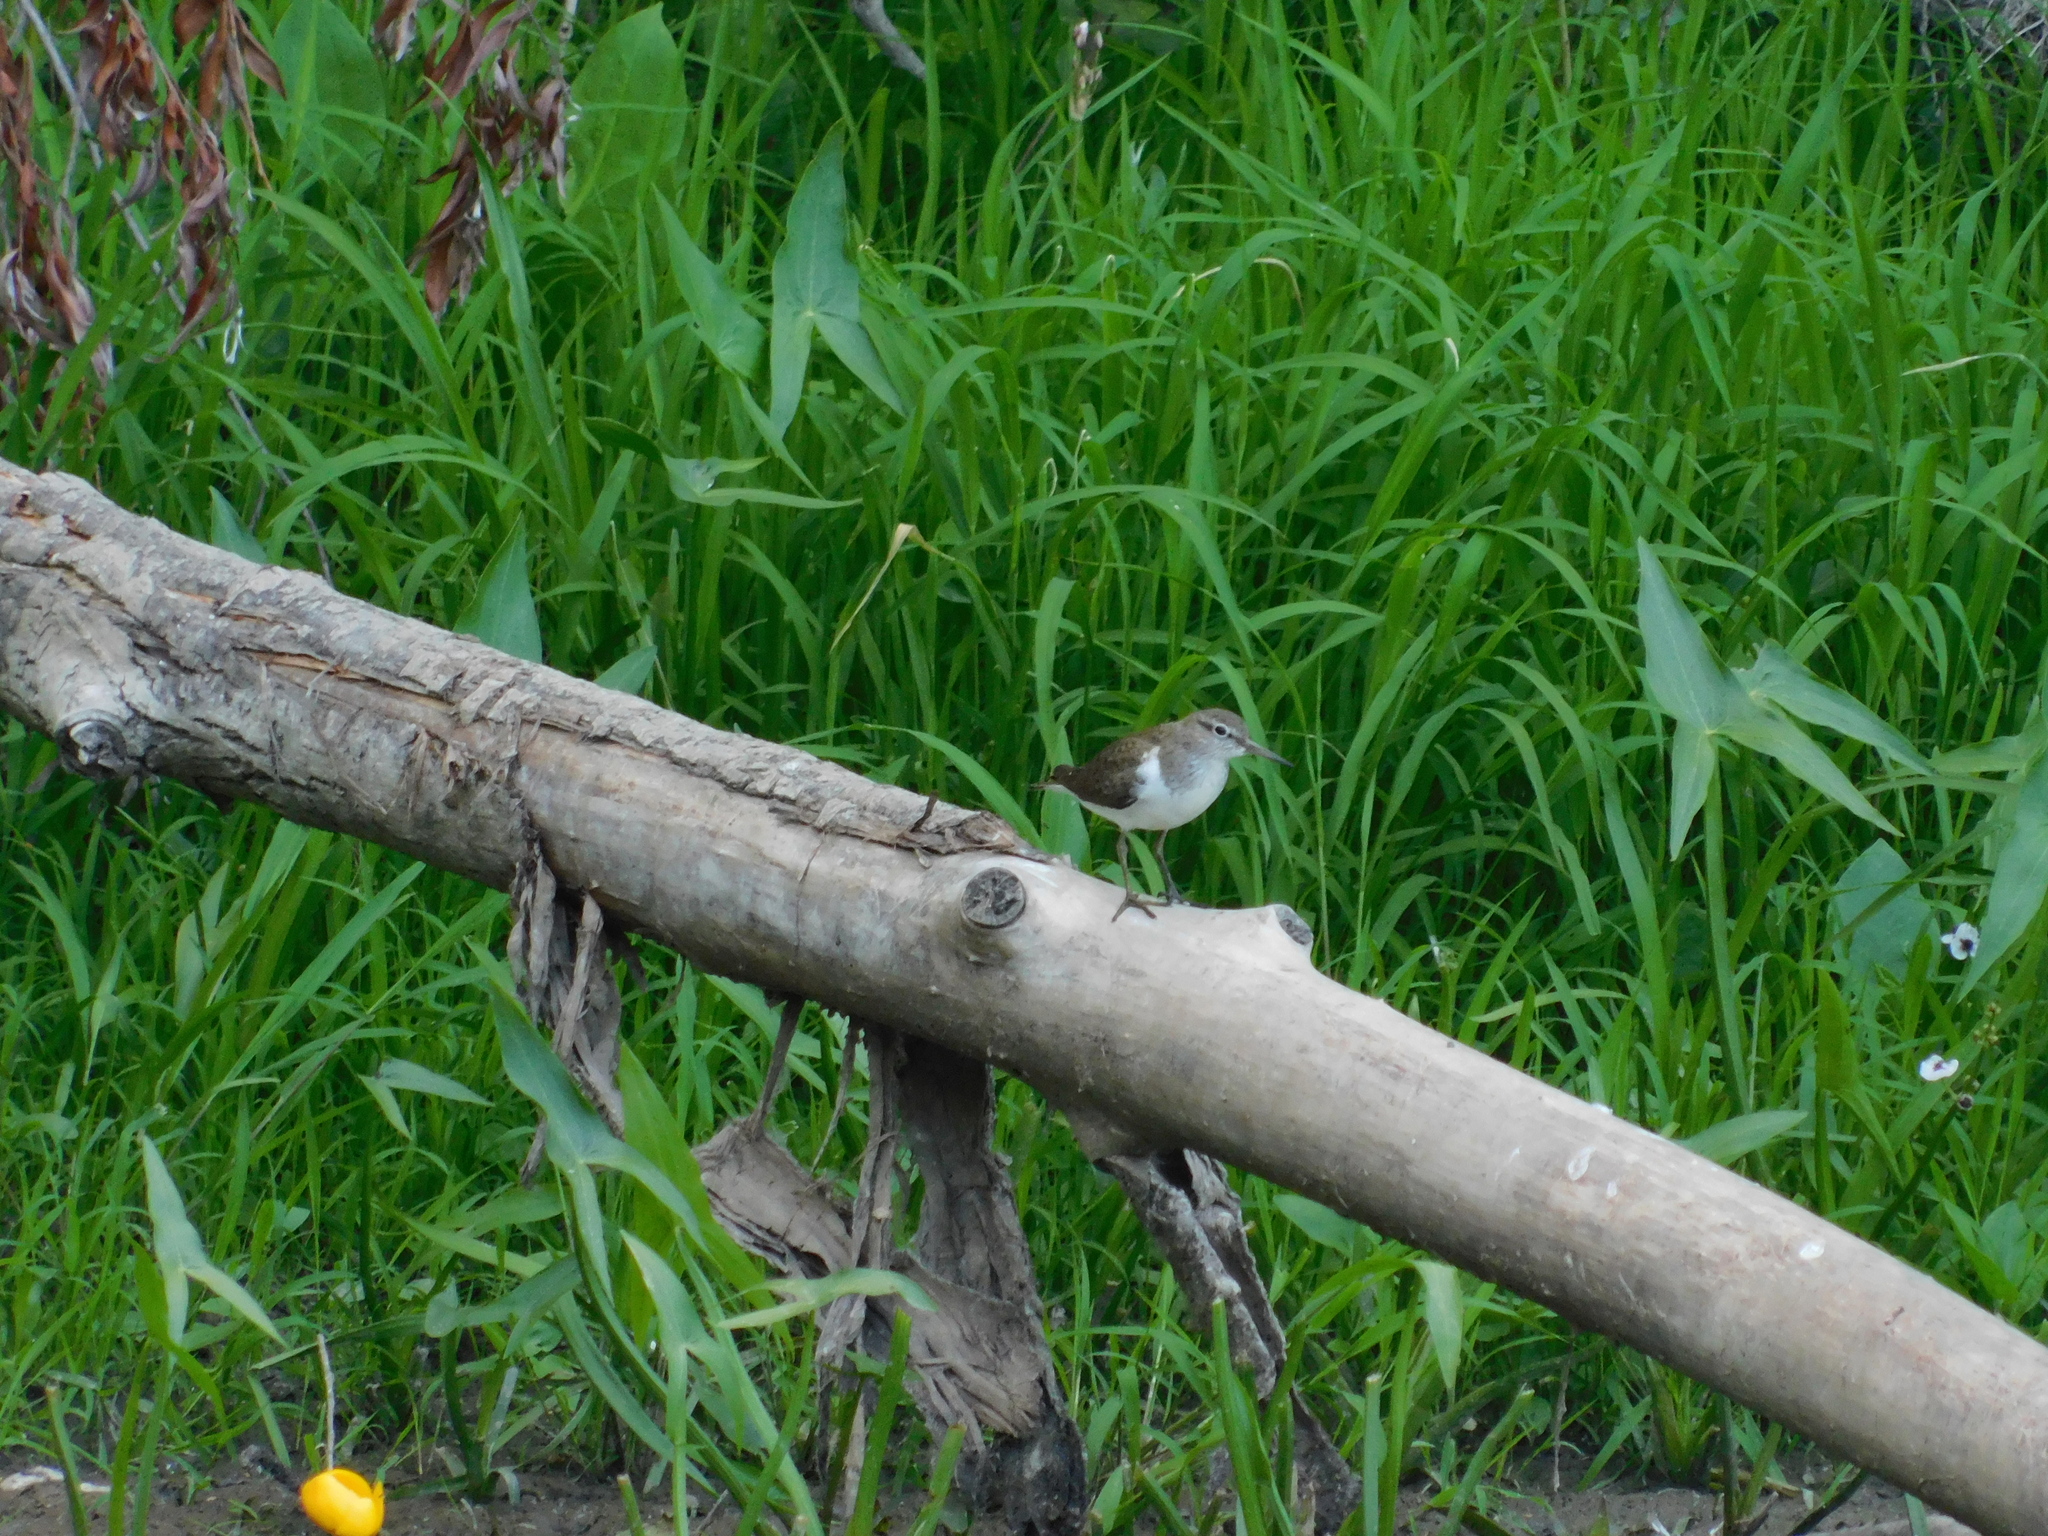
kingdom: Animalia
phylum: Chordata
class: Aves
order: Charadriiformes
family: Scolopacidae
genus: Actitis
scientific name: Actitis hypoleucos
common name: Common sandpiper
